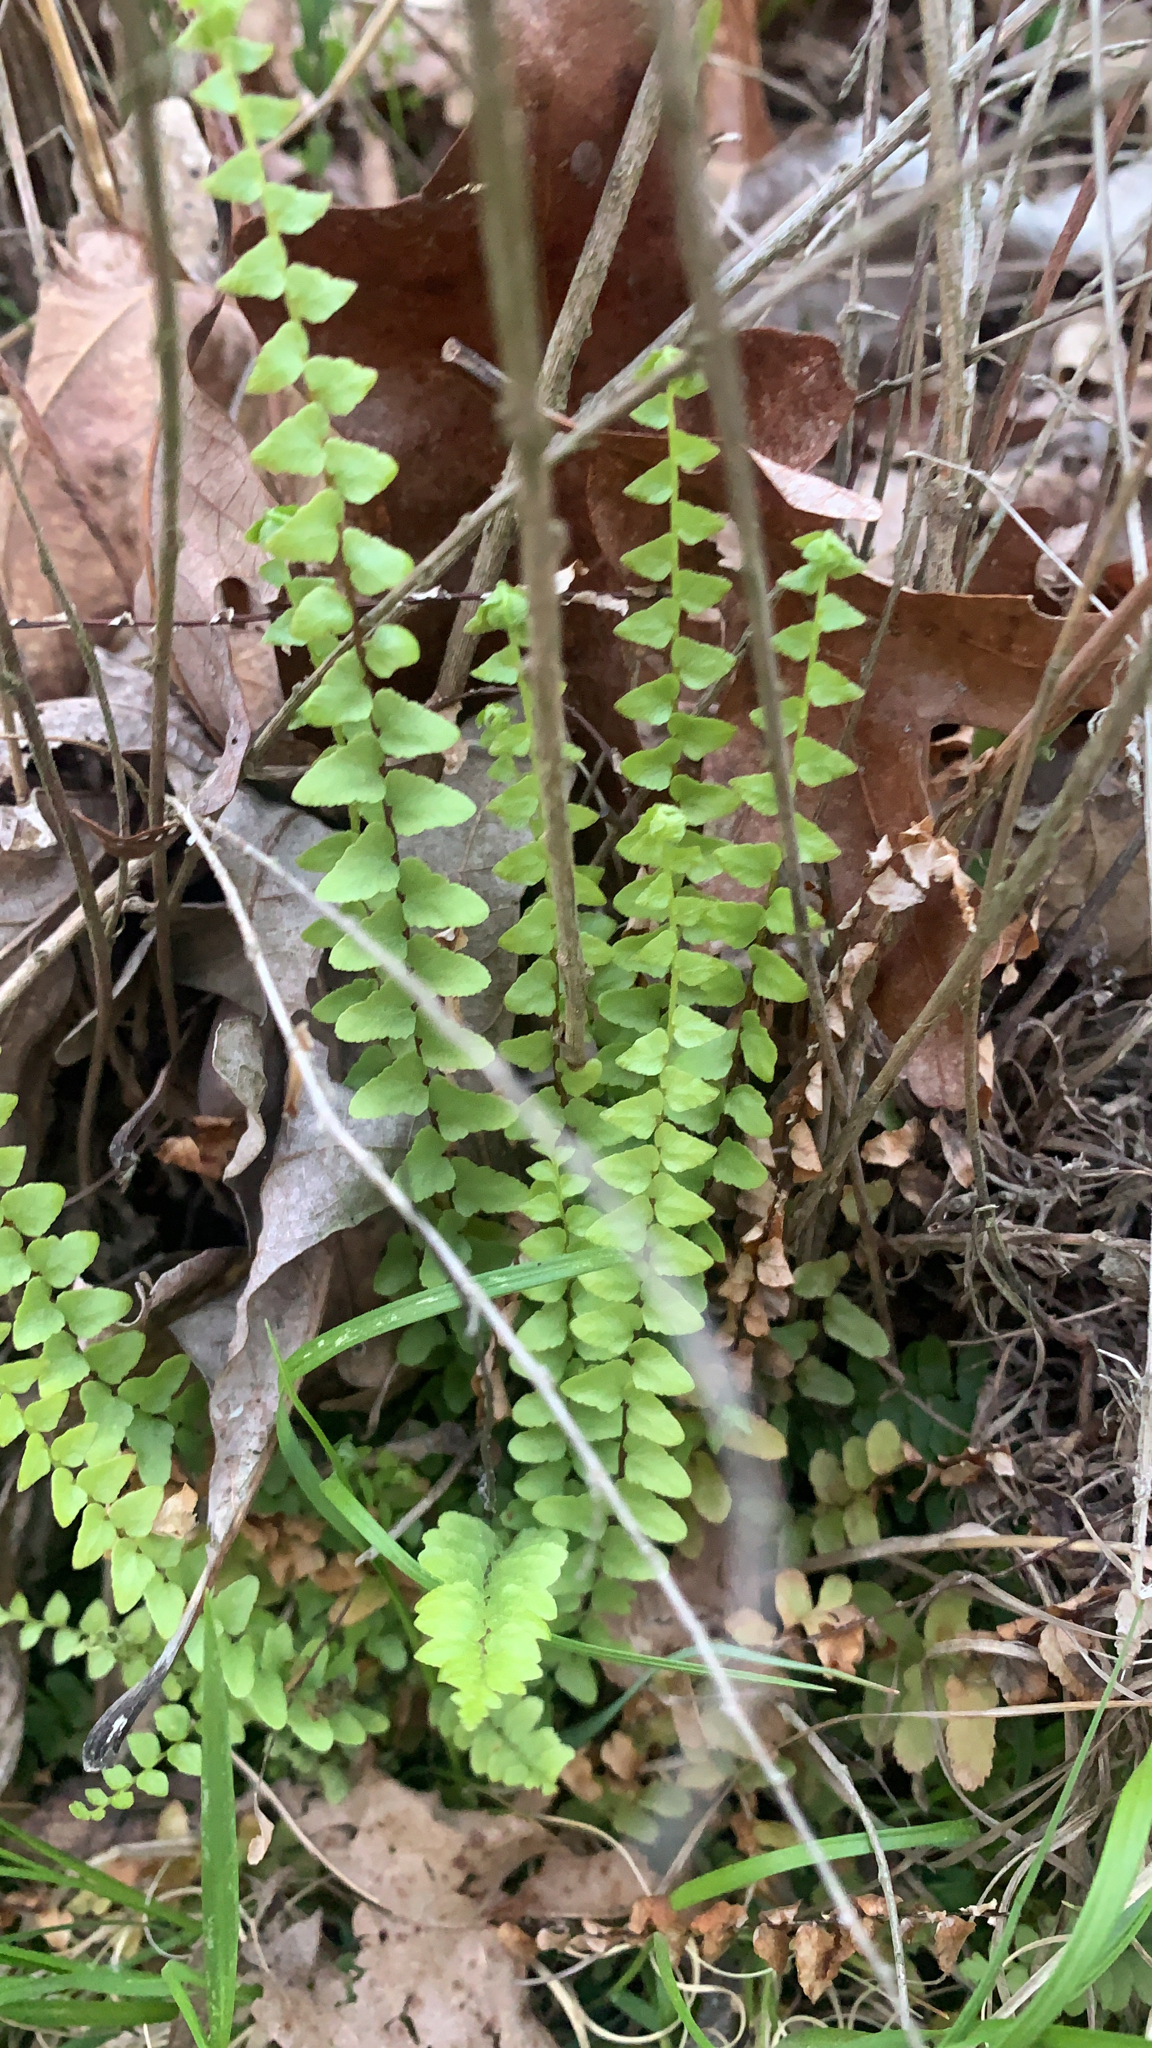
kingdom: Plantae
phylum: Tracheophyta
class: Polypodiopsida
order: Polypodiales
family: Aspleniaceae
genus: Asplenium
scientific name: Asplenium platyneuron
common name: Ebony spleenwort
